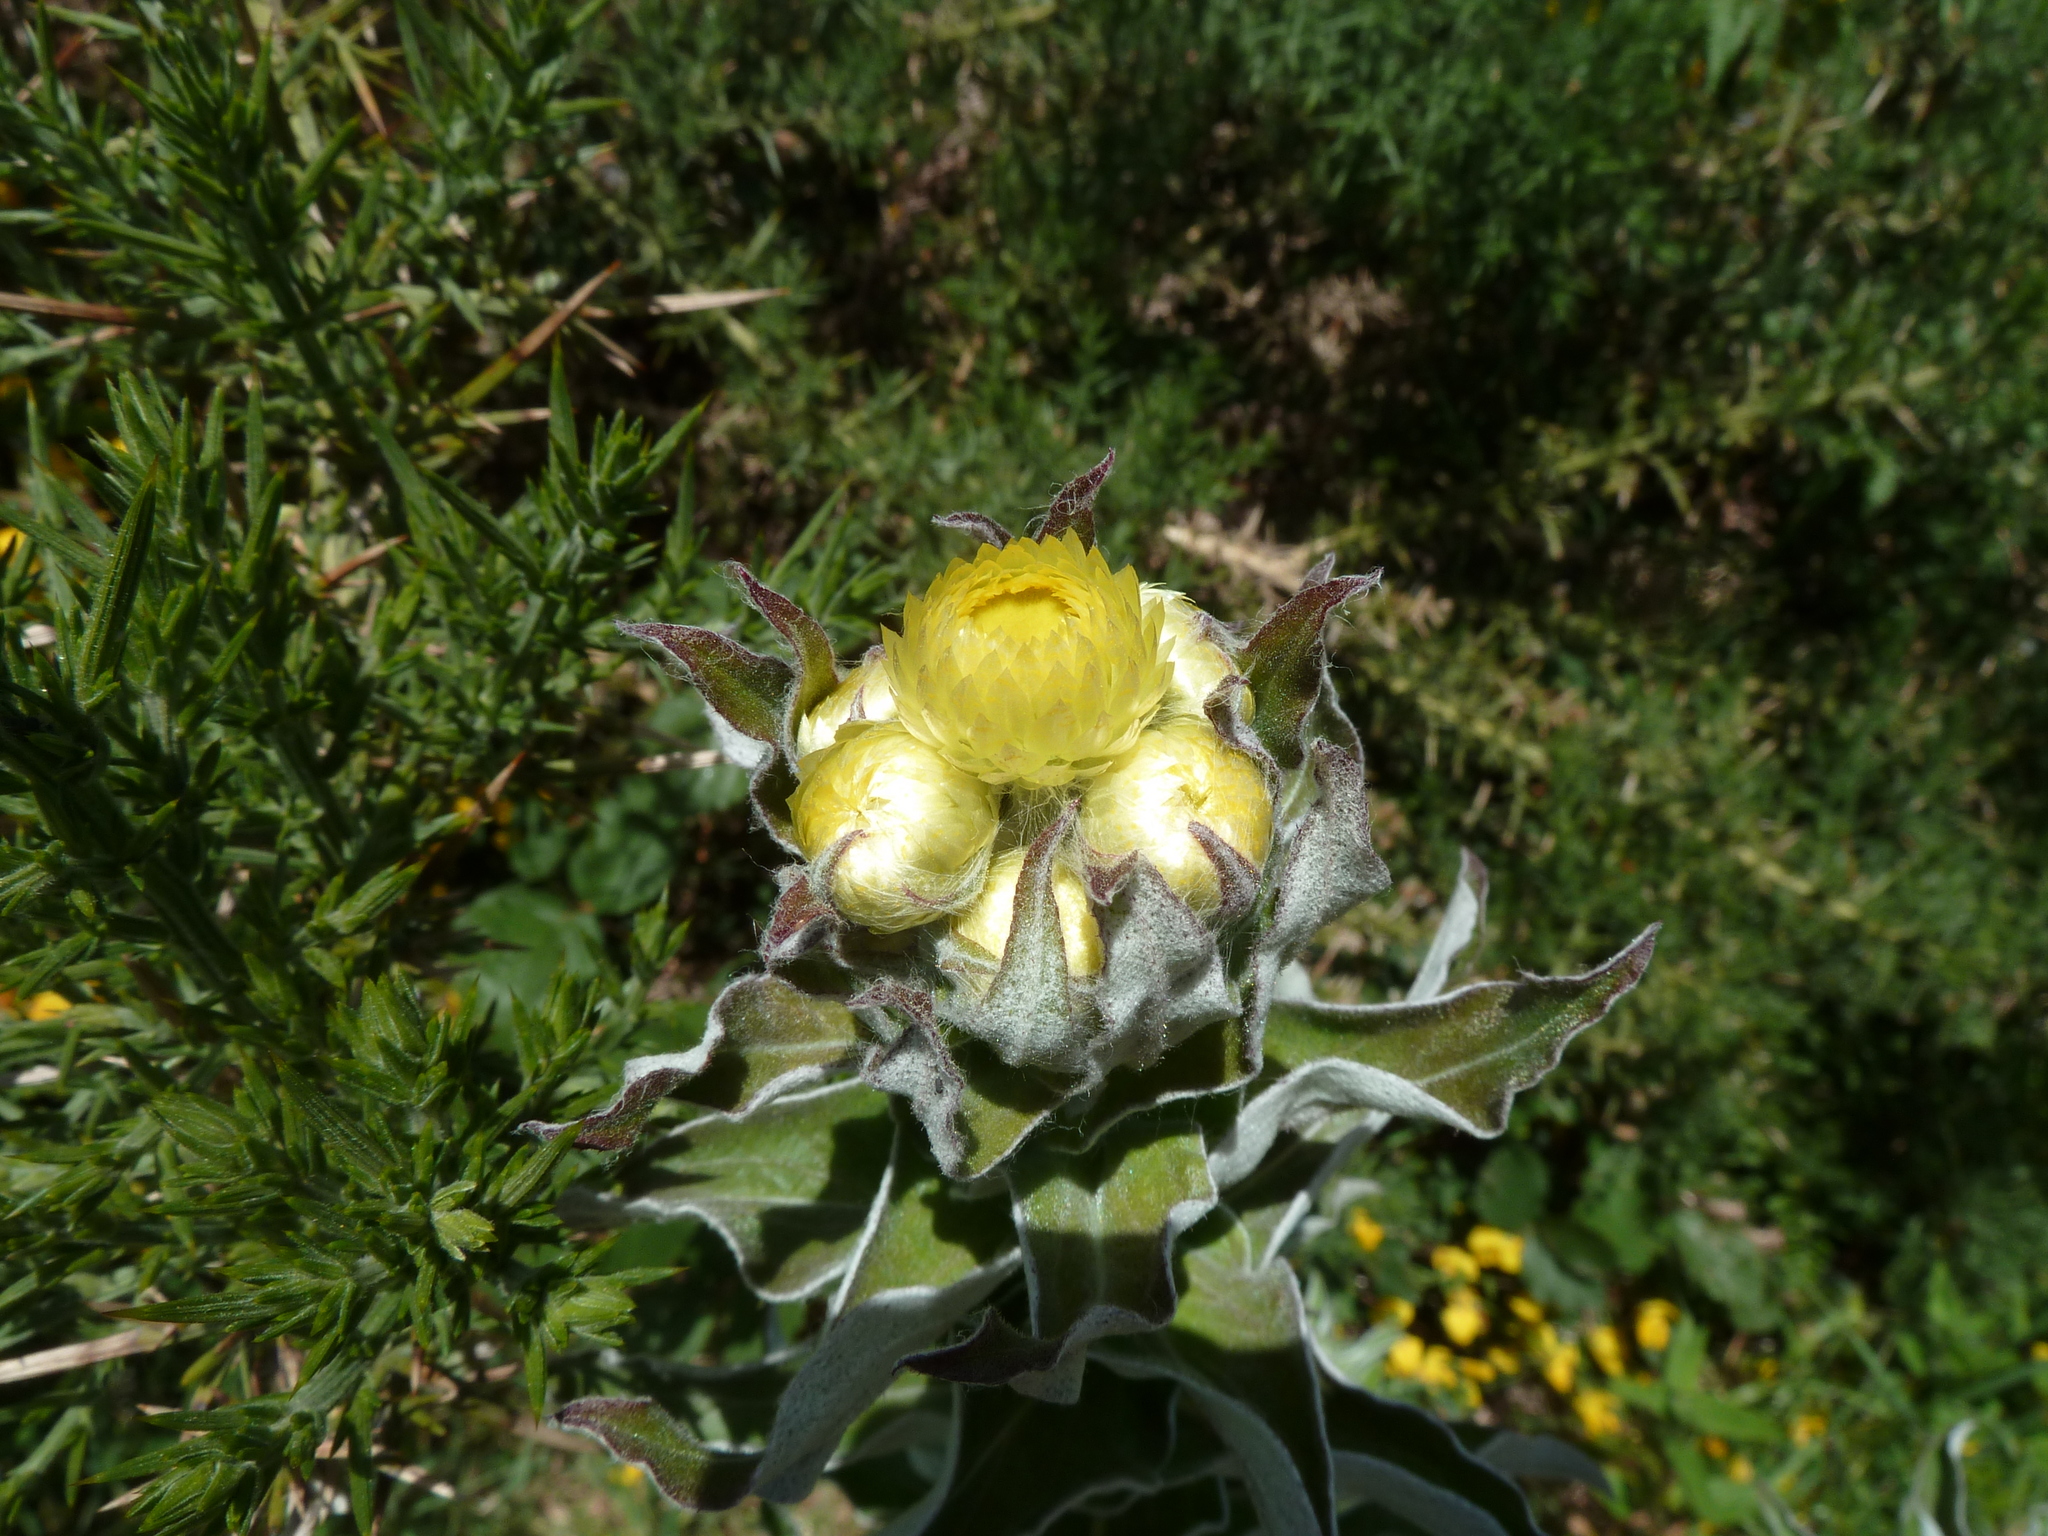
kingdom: Plantae
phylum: Tracheophyta
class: Magnoliopsida
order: Asterales
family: Asteraceae
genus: Helichrysum
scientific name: Helichrysum foetidum
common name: Stinking everlasting
